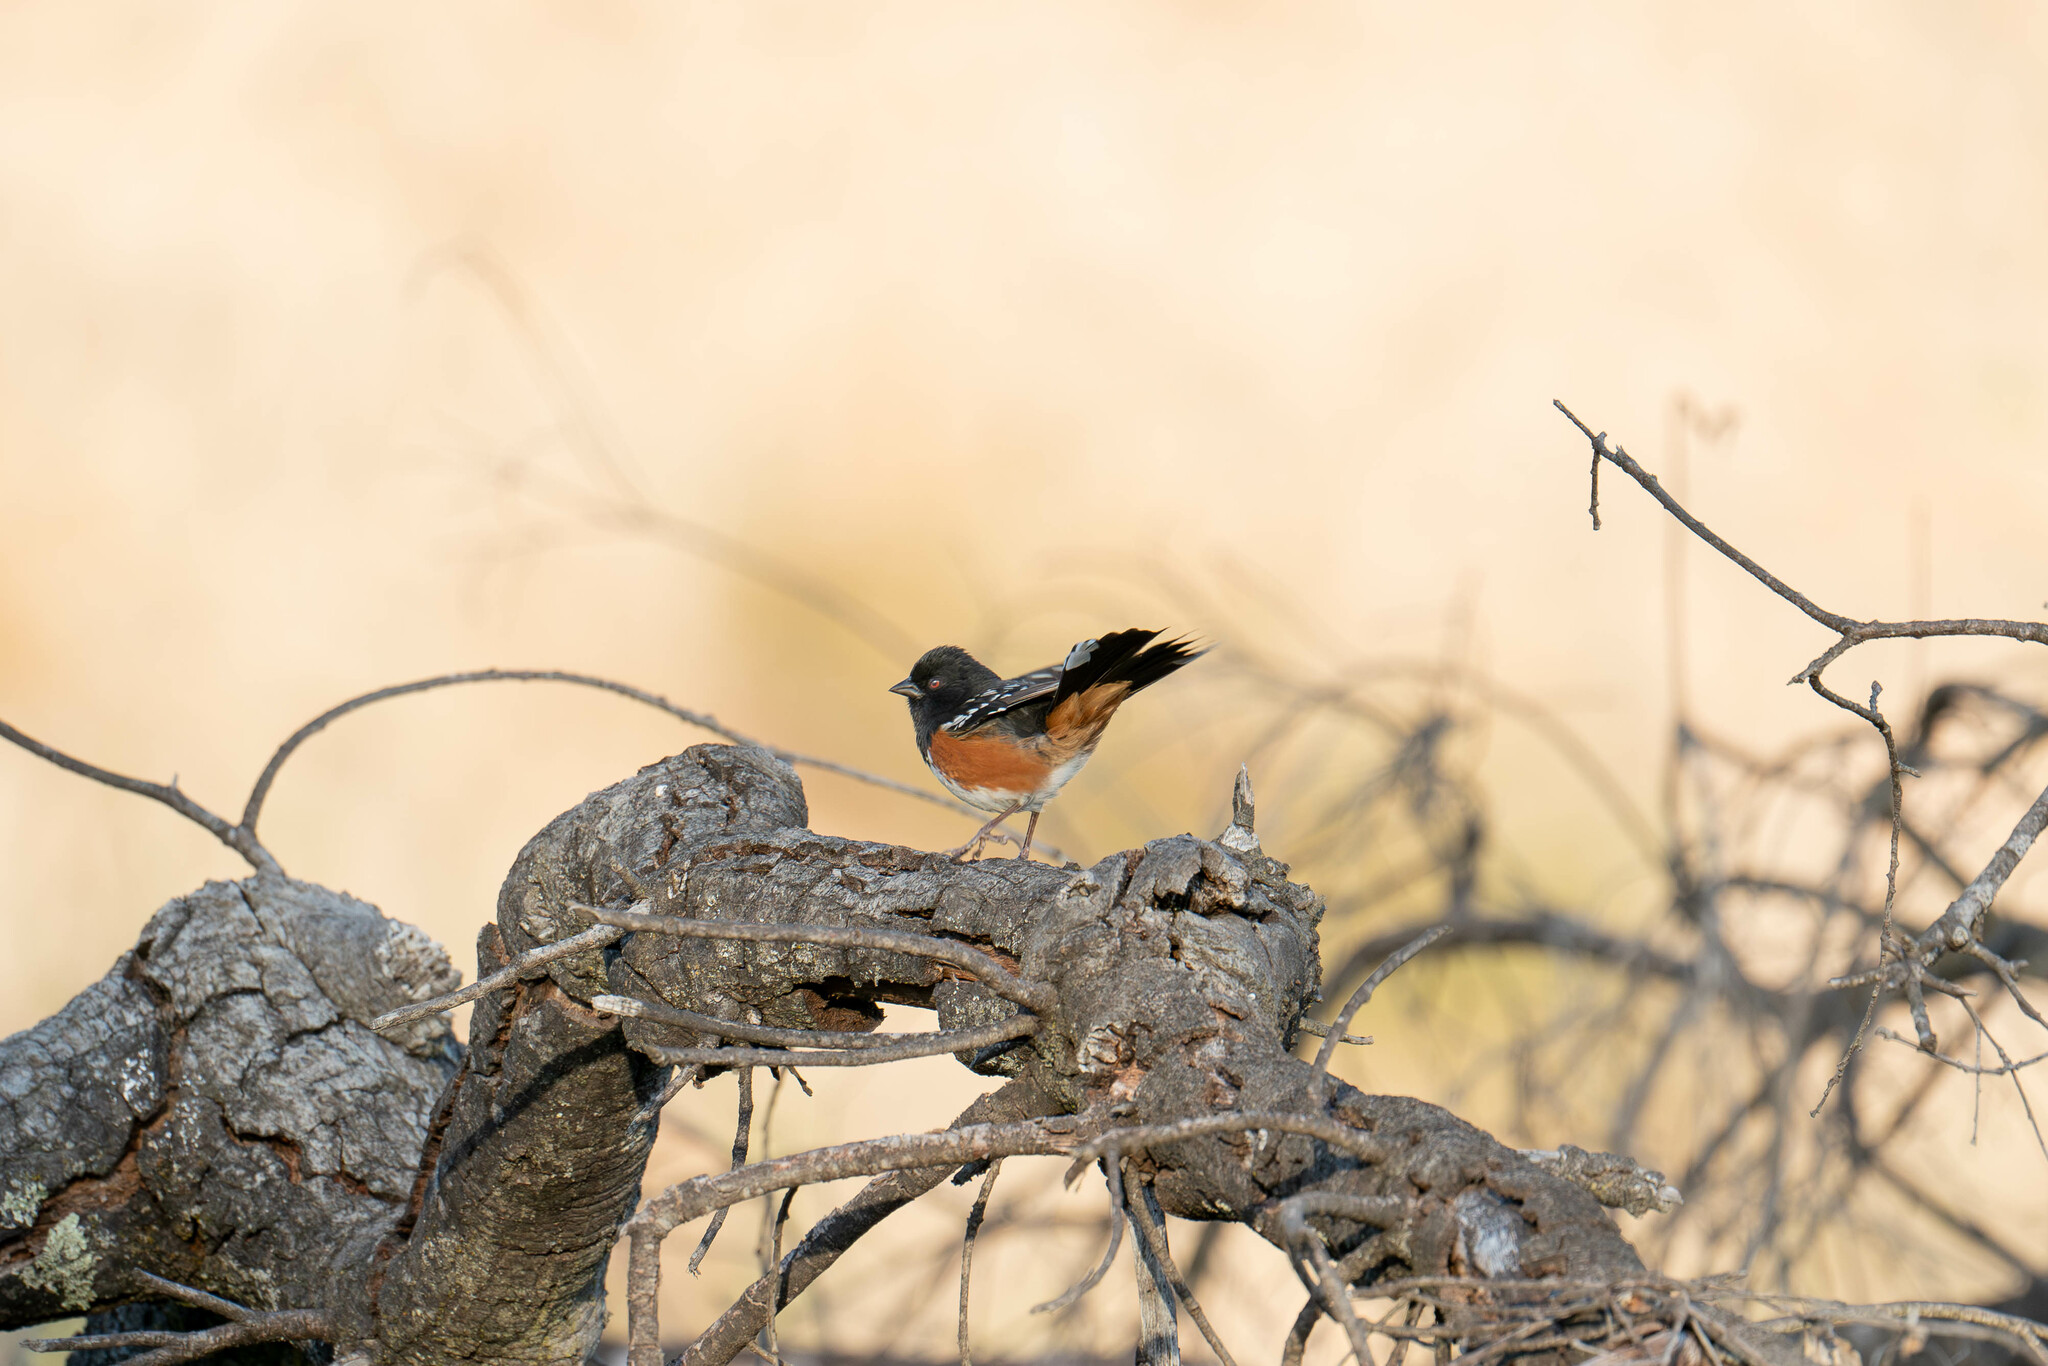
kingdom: Animalia
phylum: Chordata
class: Aves
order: Passeriformes
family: Passerellidae
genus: Pipilo
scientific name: Pipilo maculatus
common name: Spotted towhee
